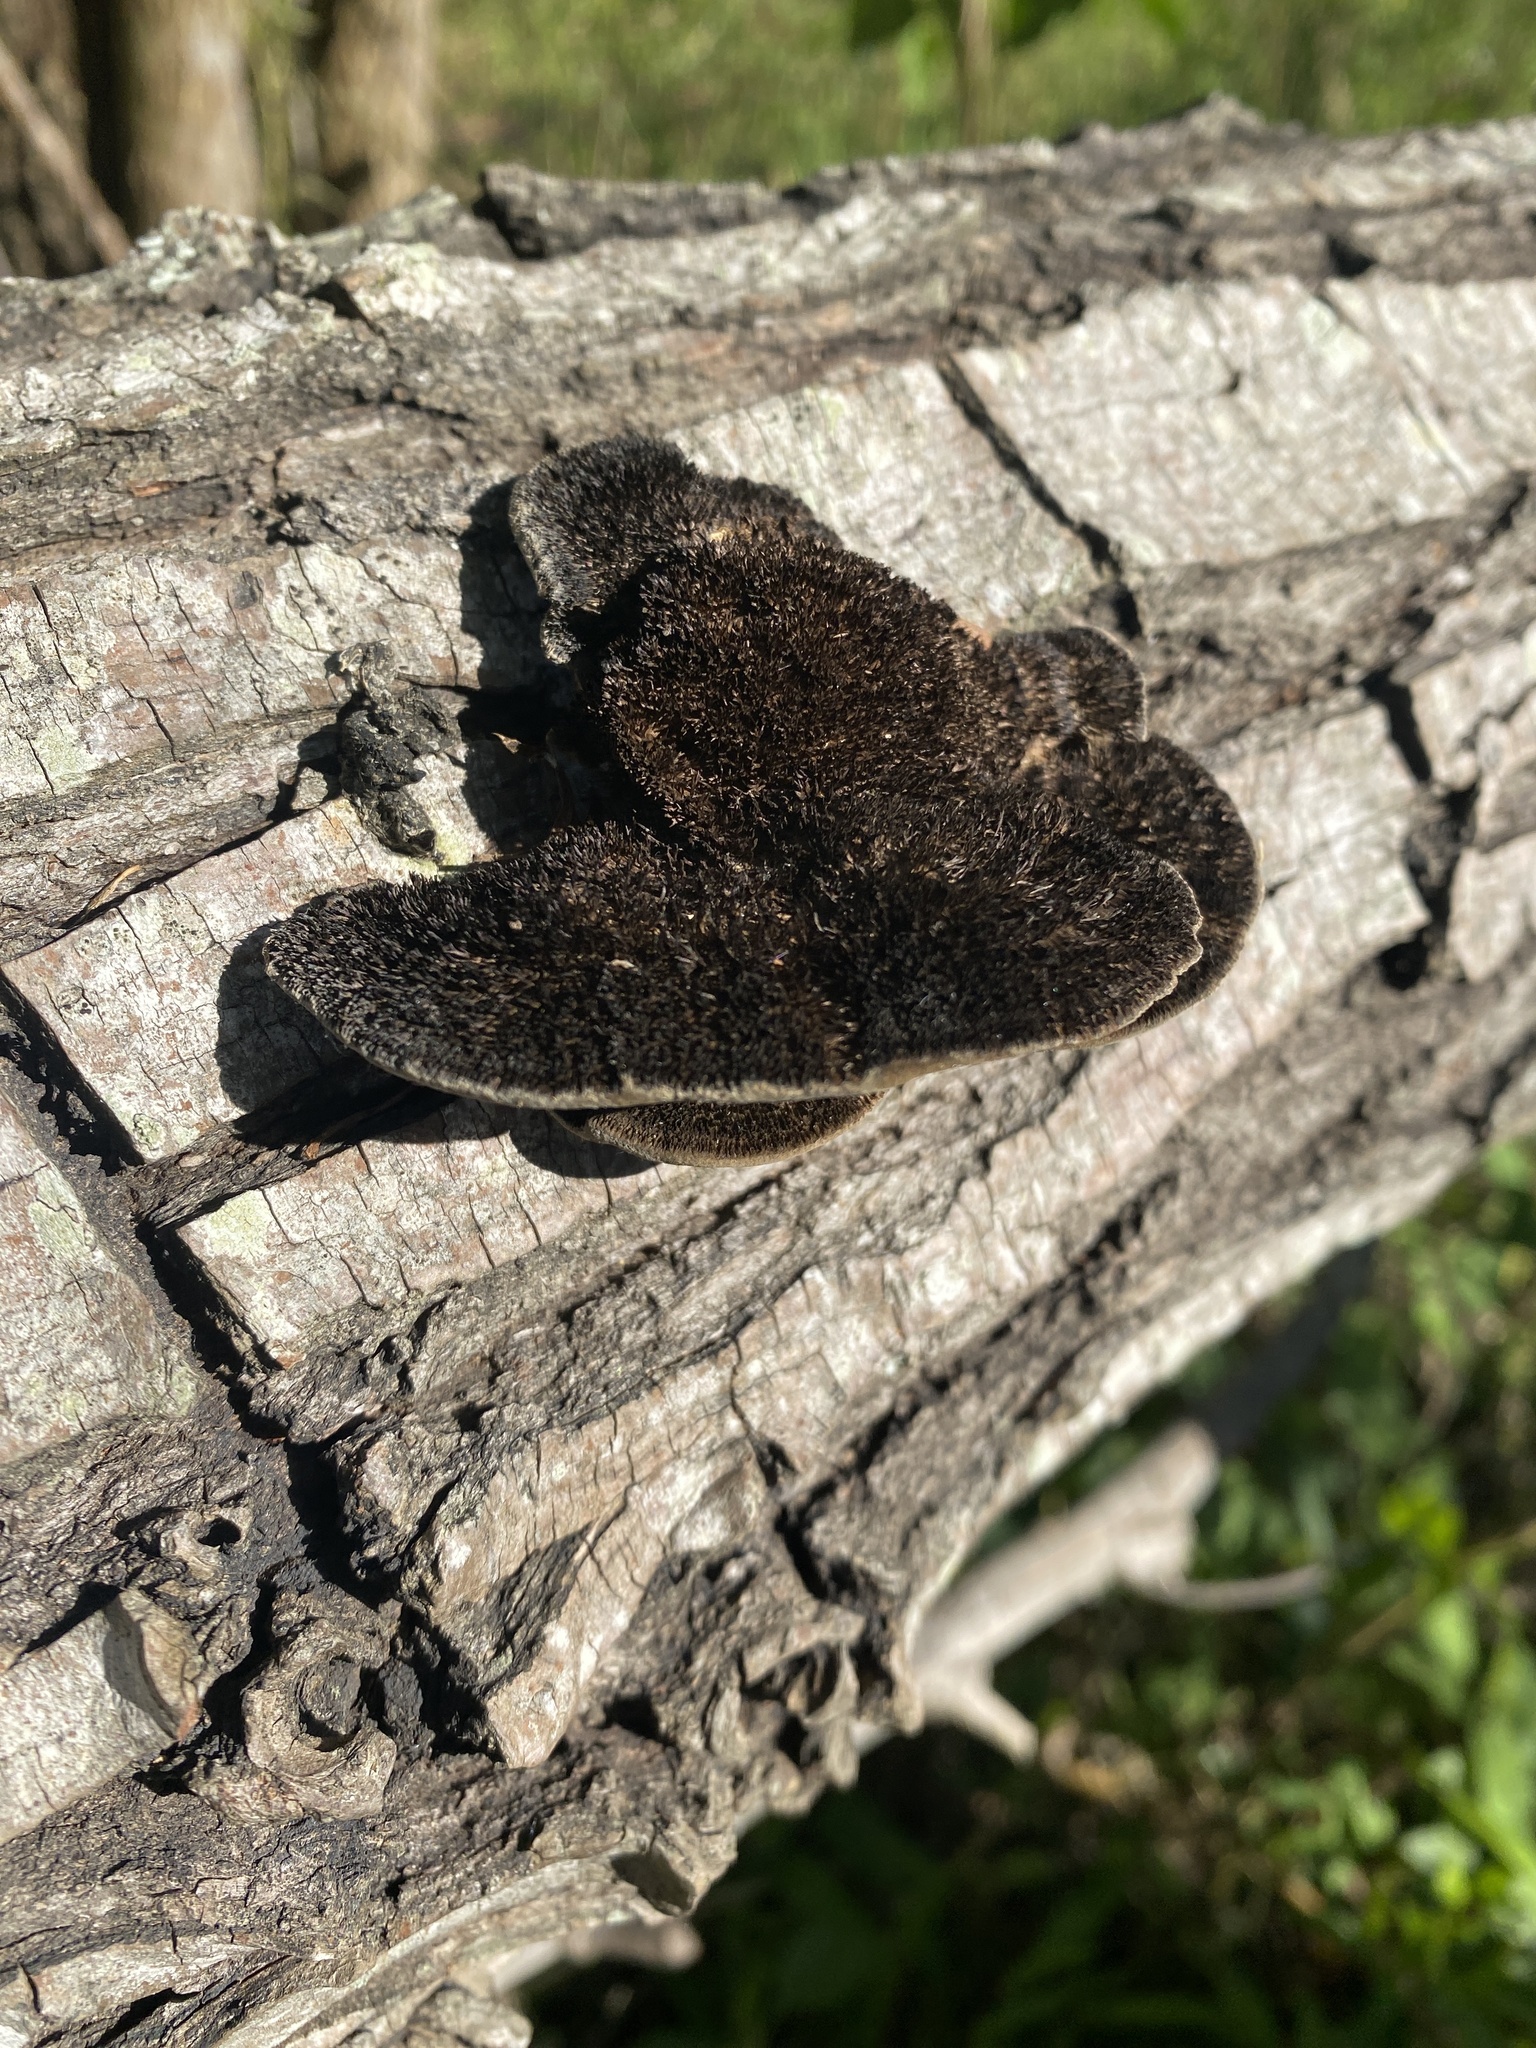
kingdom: Fungi
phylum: Basidiomycota
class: Agaricomycetes
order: Polyporales
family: Cerrenaceae
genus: Cerrena
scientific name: Cerrena hydnoides
